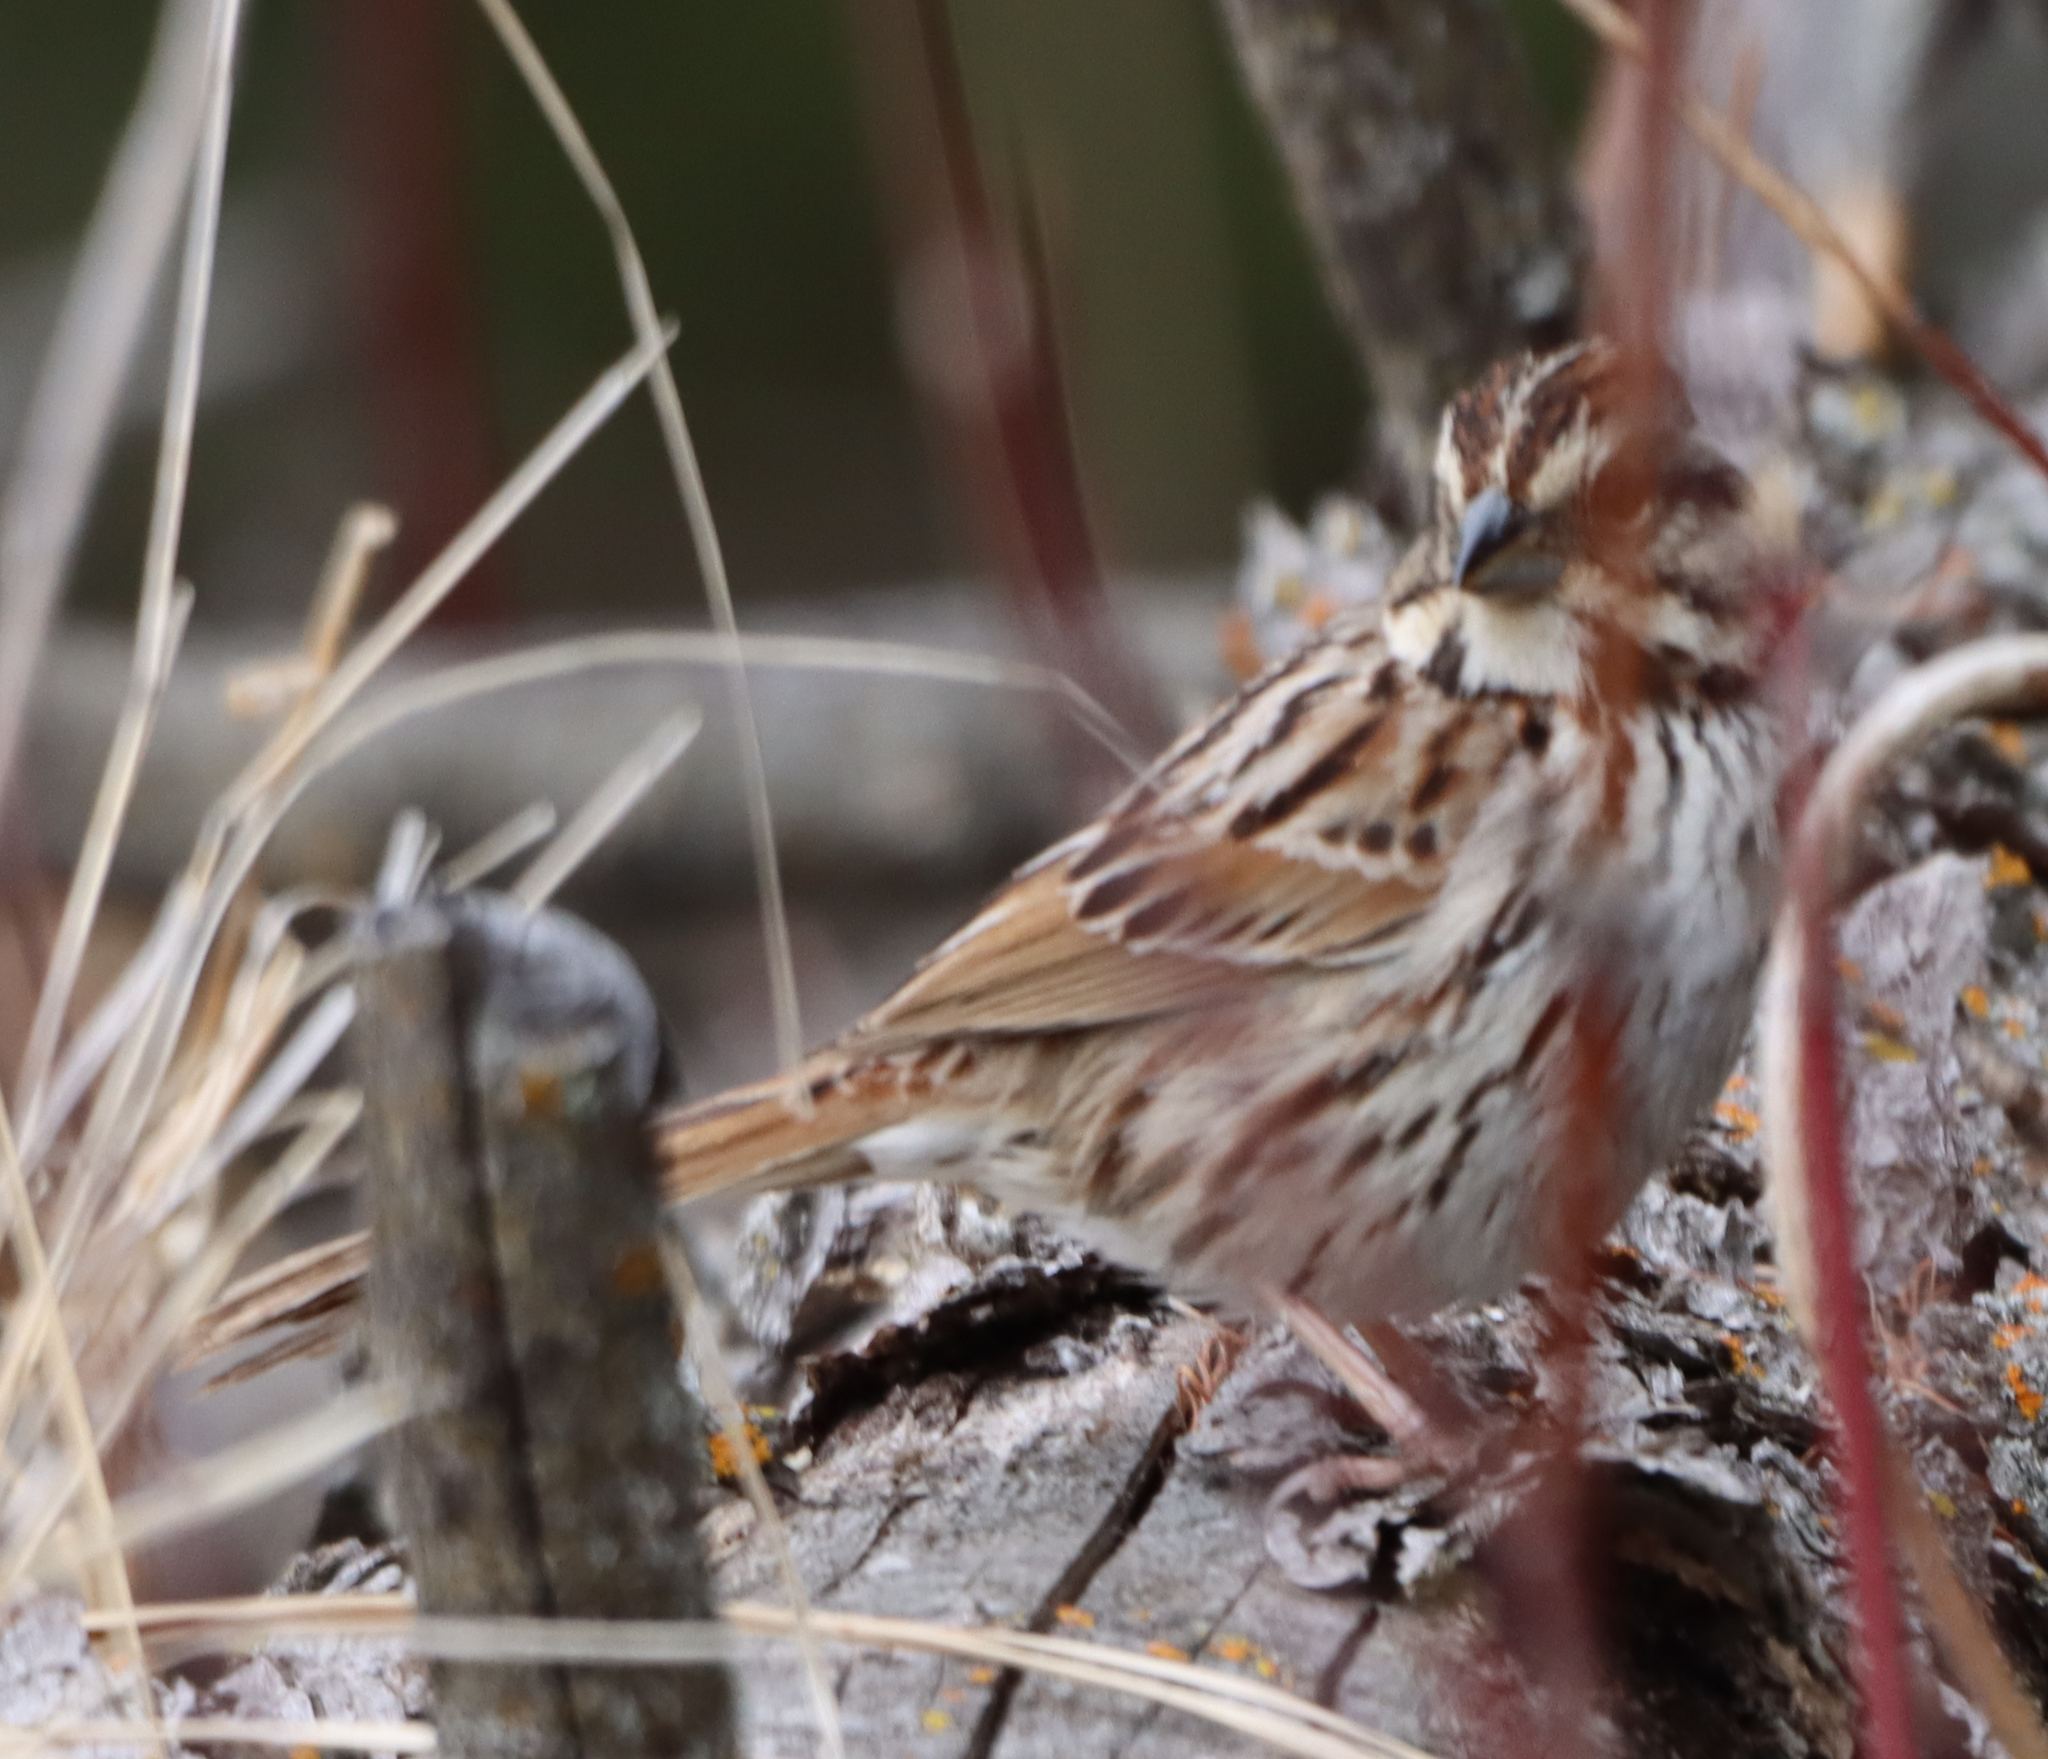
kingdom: Animalia
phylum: Chordata
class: Aves
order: Passeriformes
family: Passerellidae
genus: Melospiza
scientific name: Melospiza melodia
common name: Song sparrow
